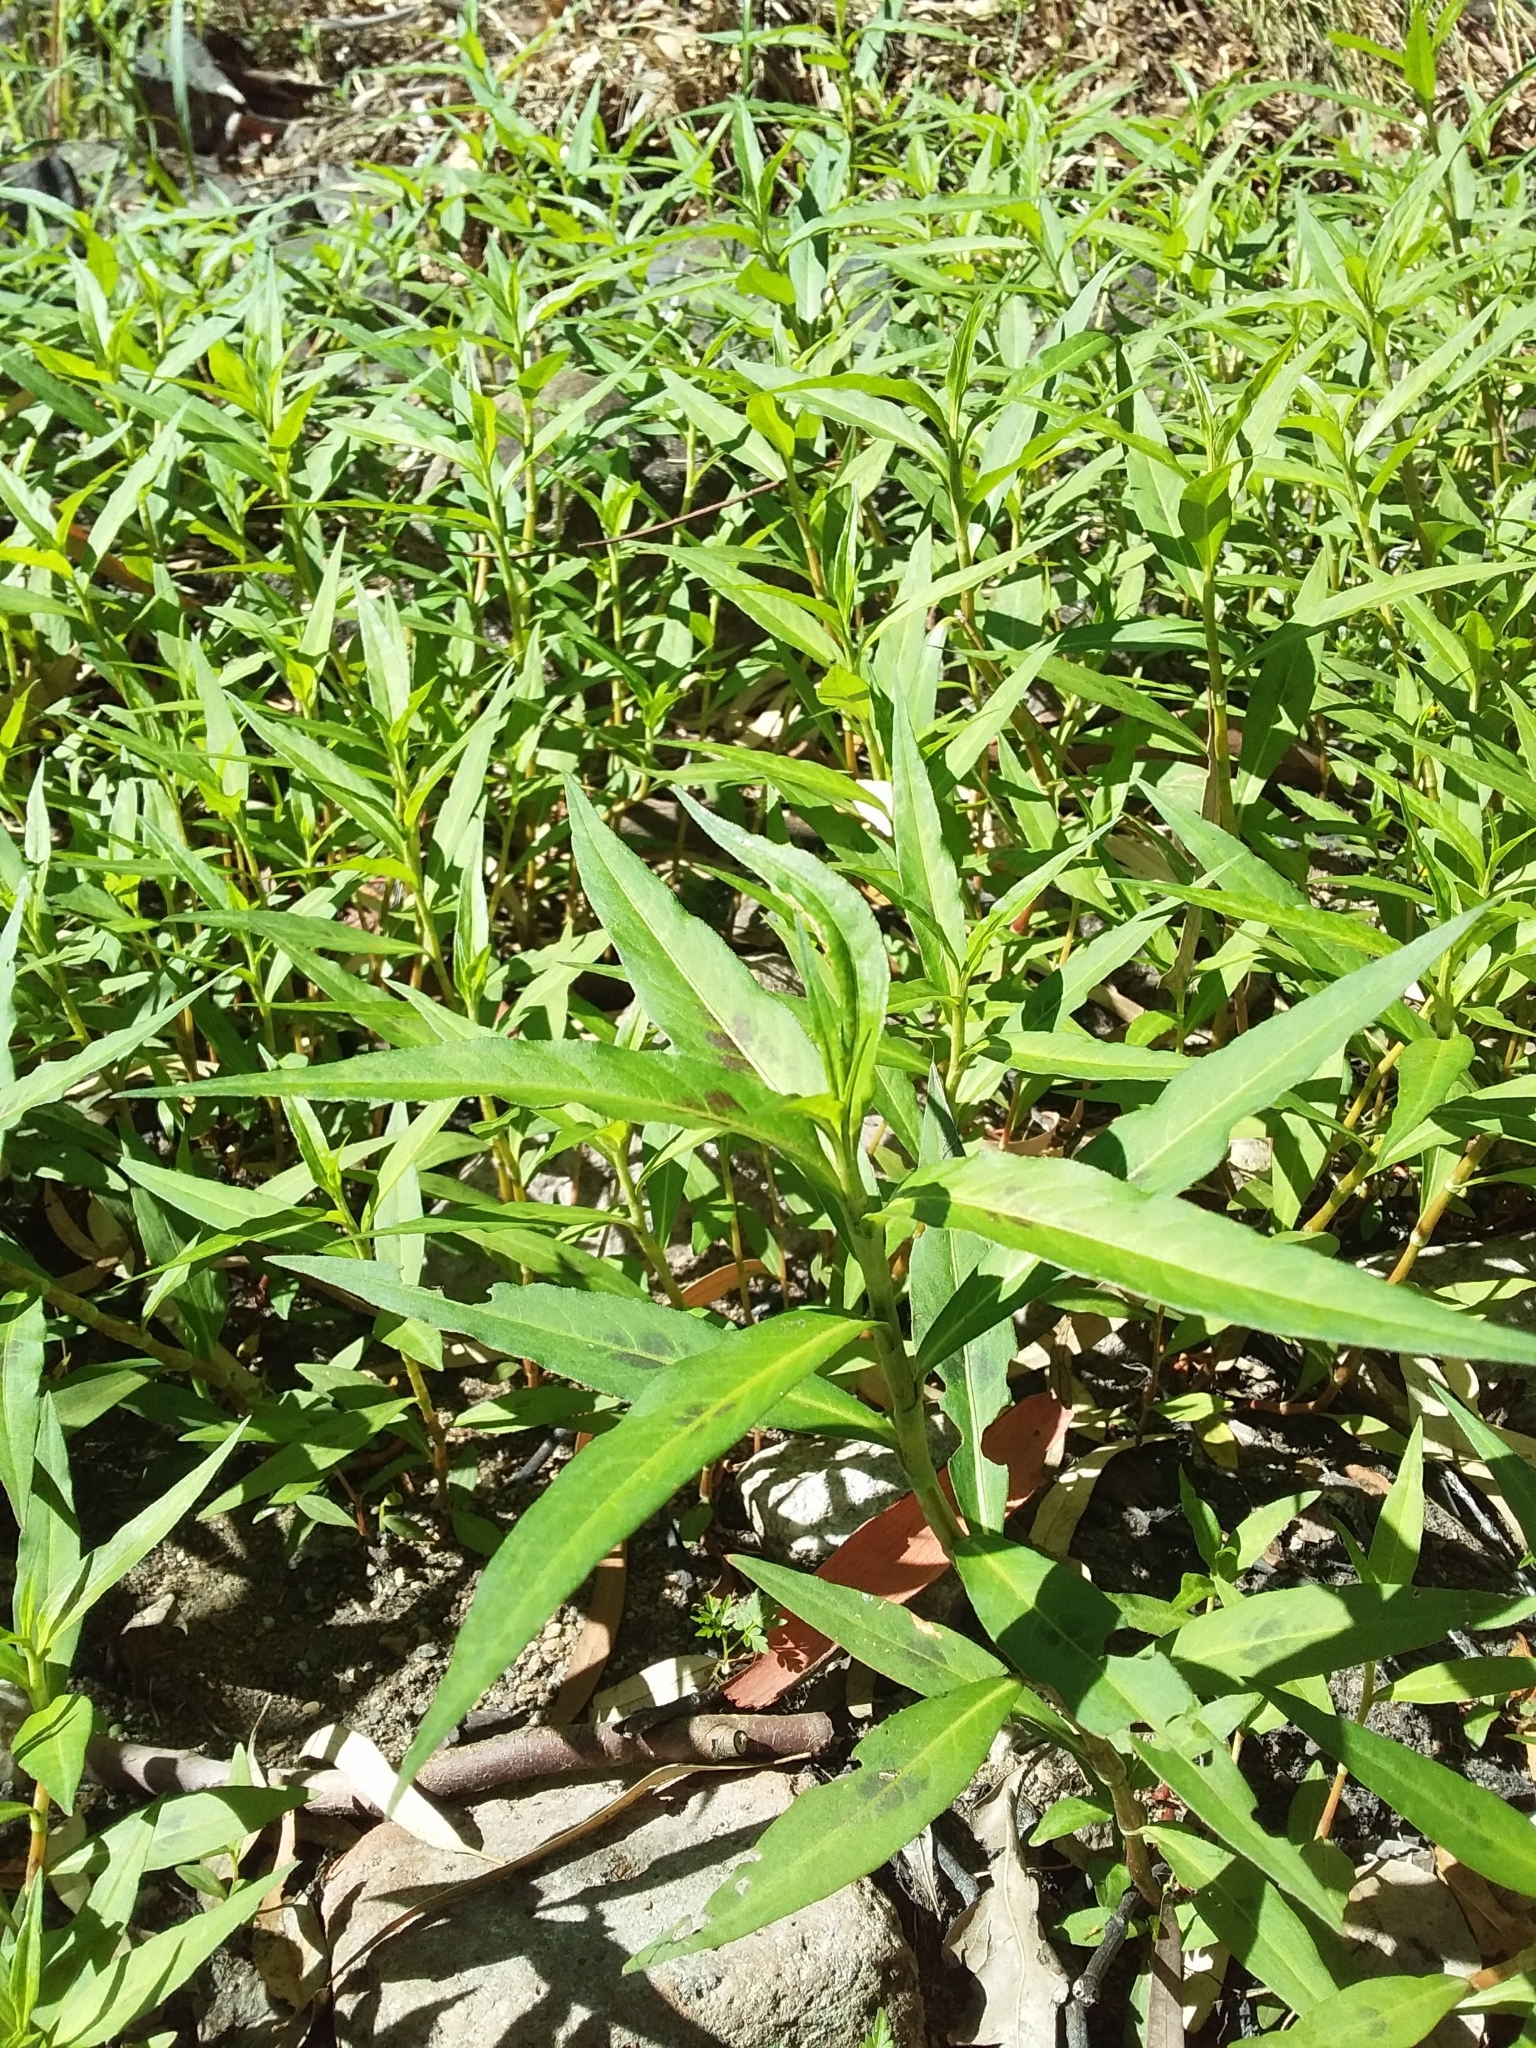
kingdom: Plantae
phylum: Tracheophyta
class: Magnoliopsida
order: Caryophyllales
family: Polygonaceae
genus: Persicaria
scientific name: Persicaria decipiens
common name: Willow-weed
